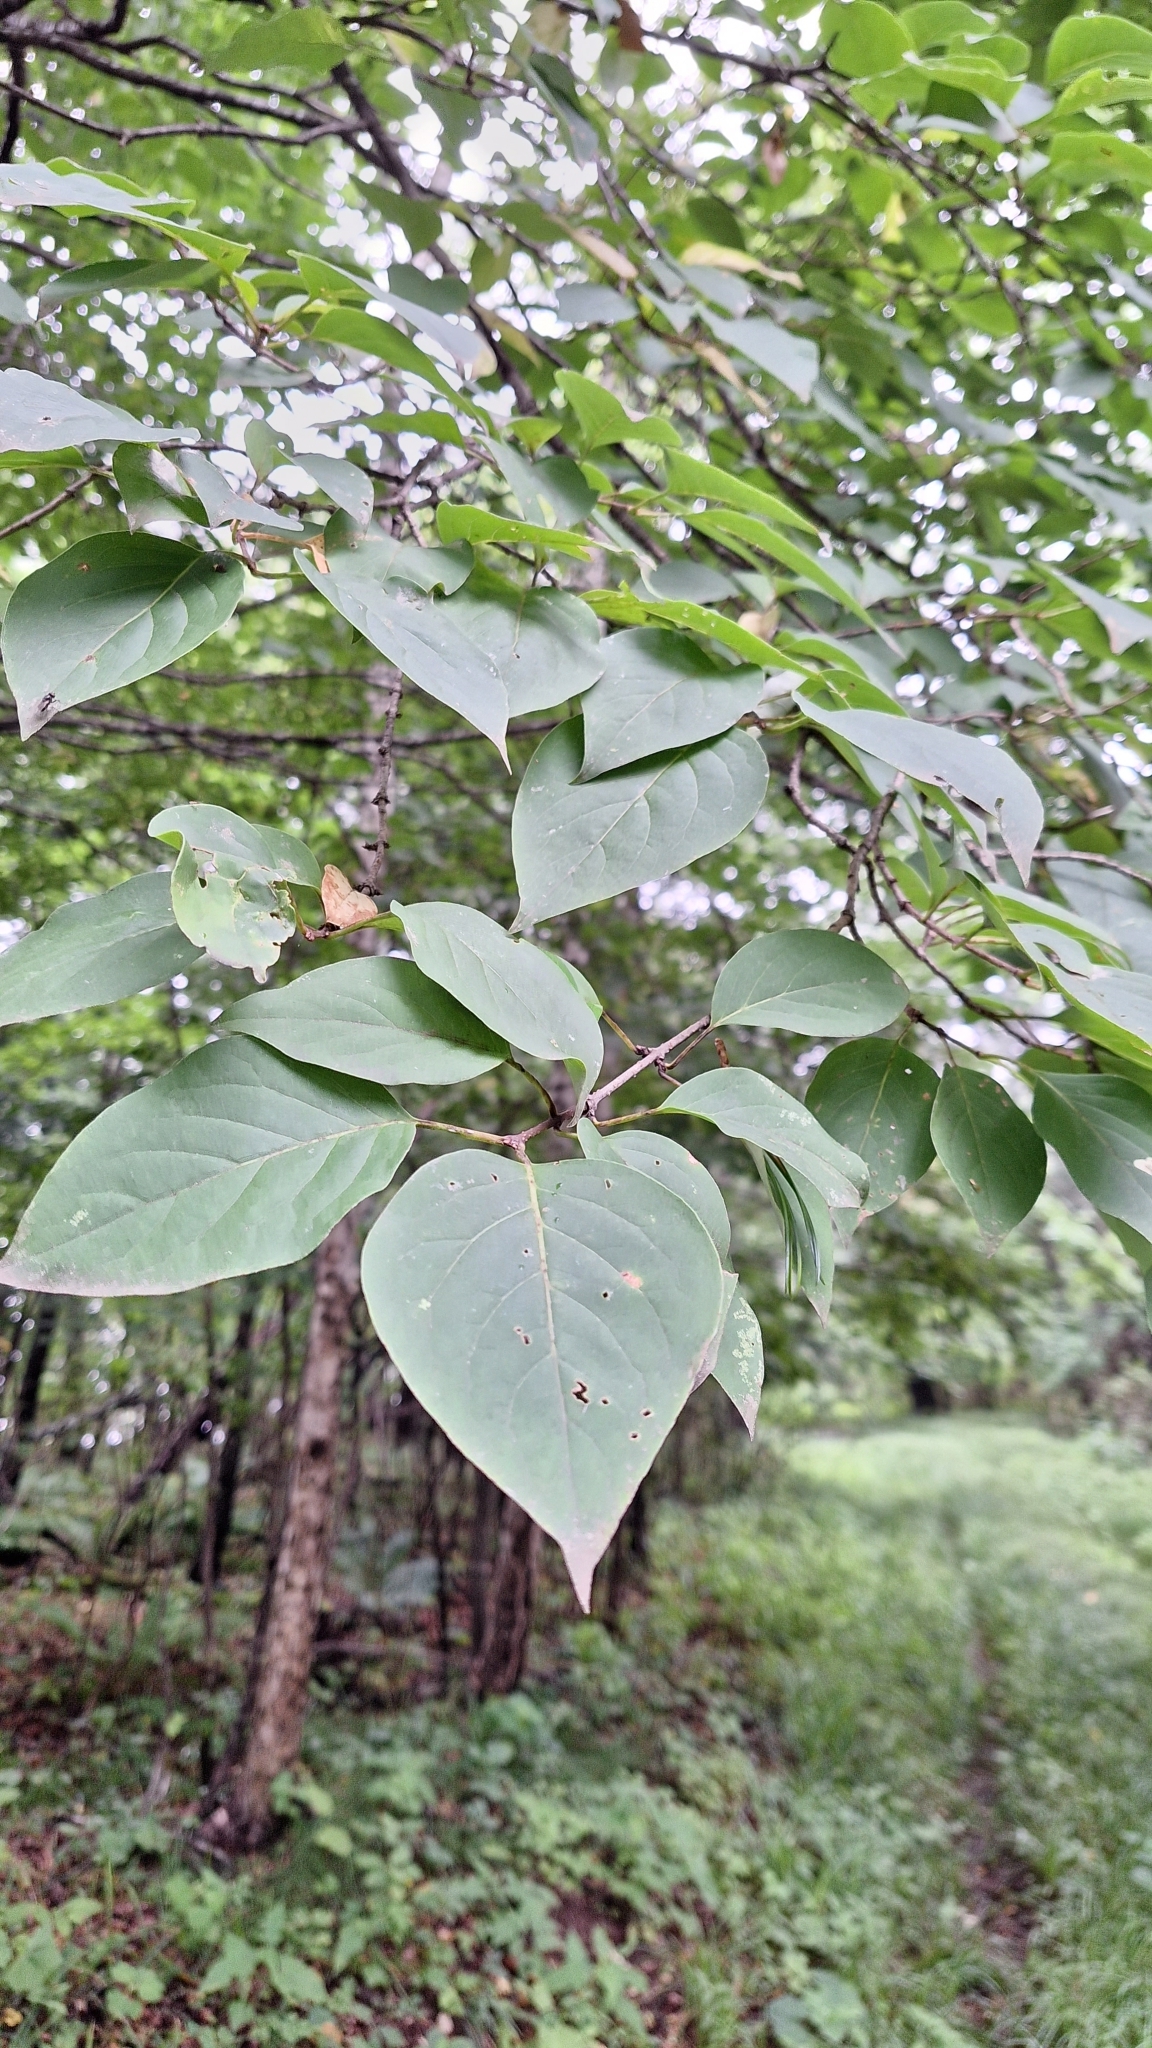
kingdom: Plantae
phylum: Tracheophyta
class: Magnoliopsida
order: Lamiales
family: Oleaceae
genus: Syringa
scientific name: Syringa reticulata
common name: Japanese tree lilac
